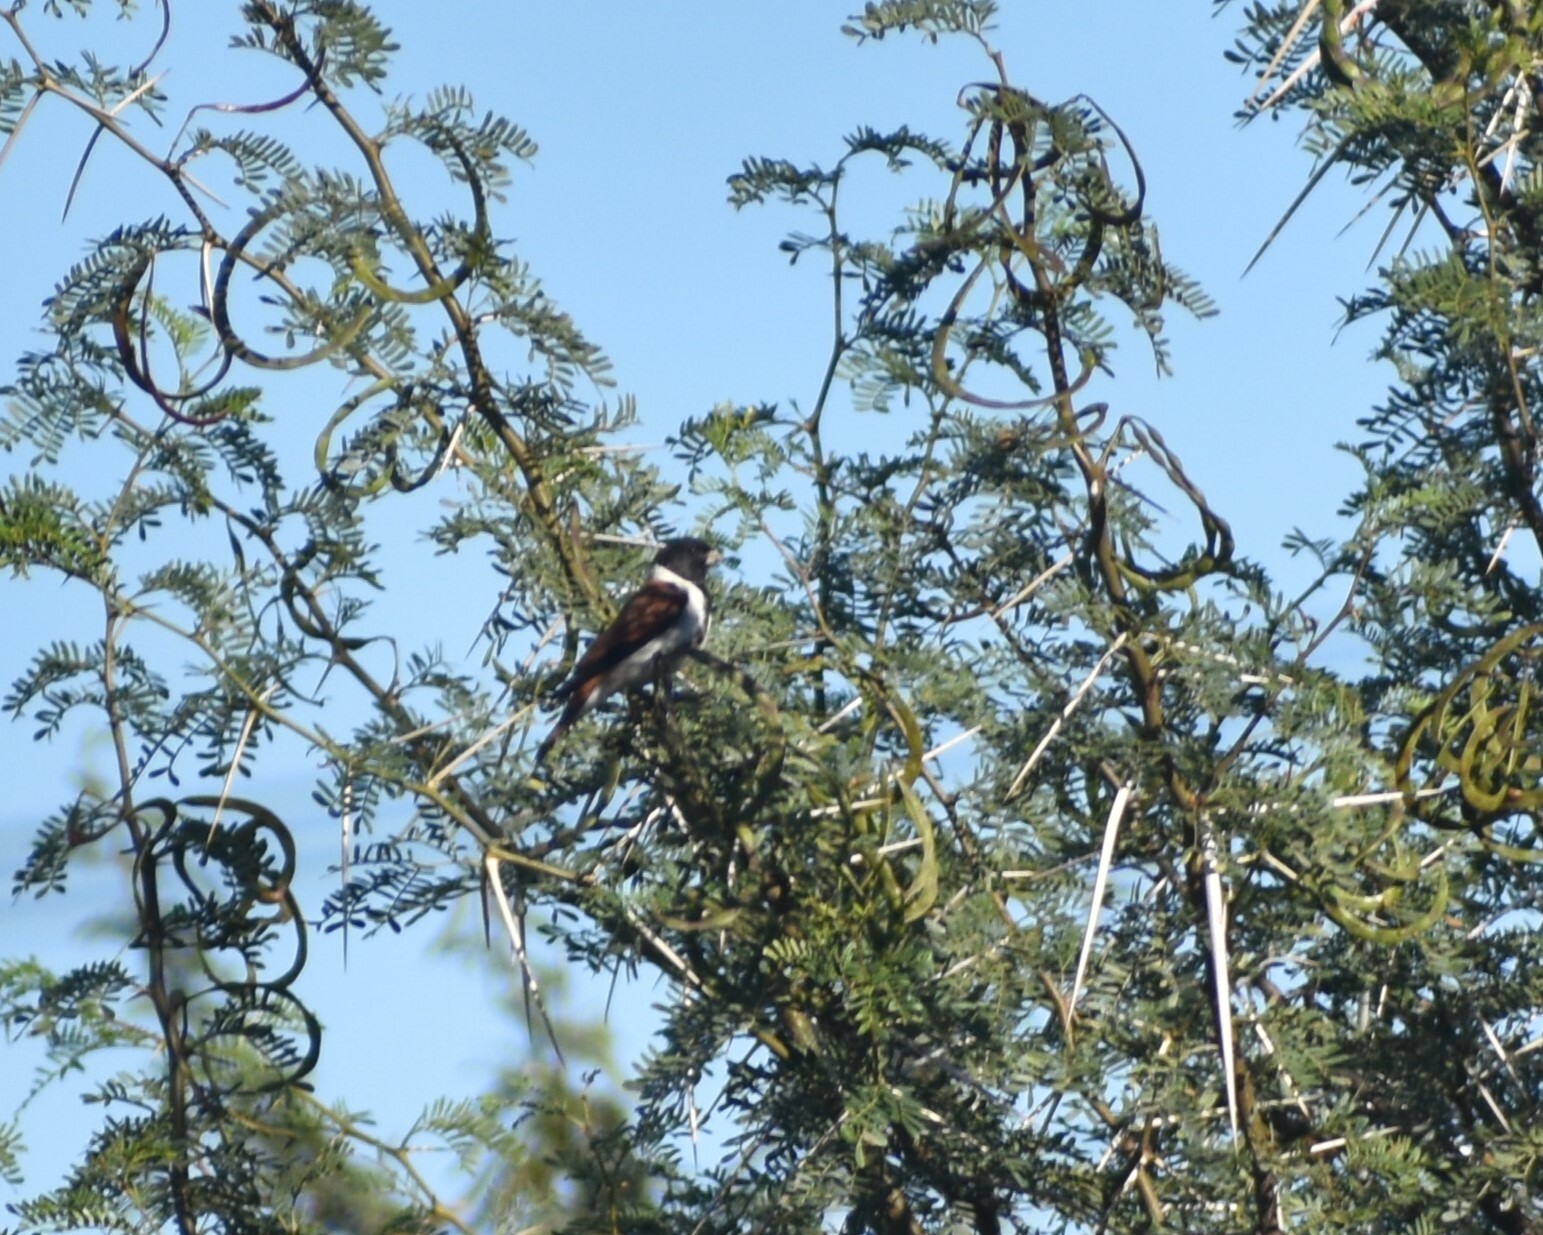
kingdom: Animalia
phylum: Chordata
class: Aves
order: Passeriformes
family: Fringillidae
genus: Serinus
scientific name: Serinus alario
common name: Black-headed canary
